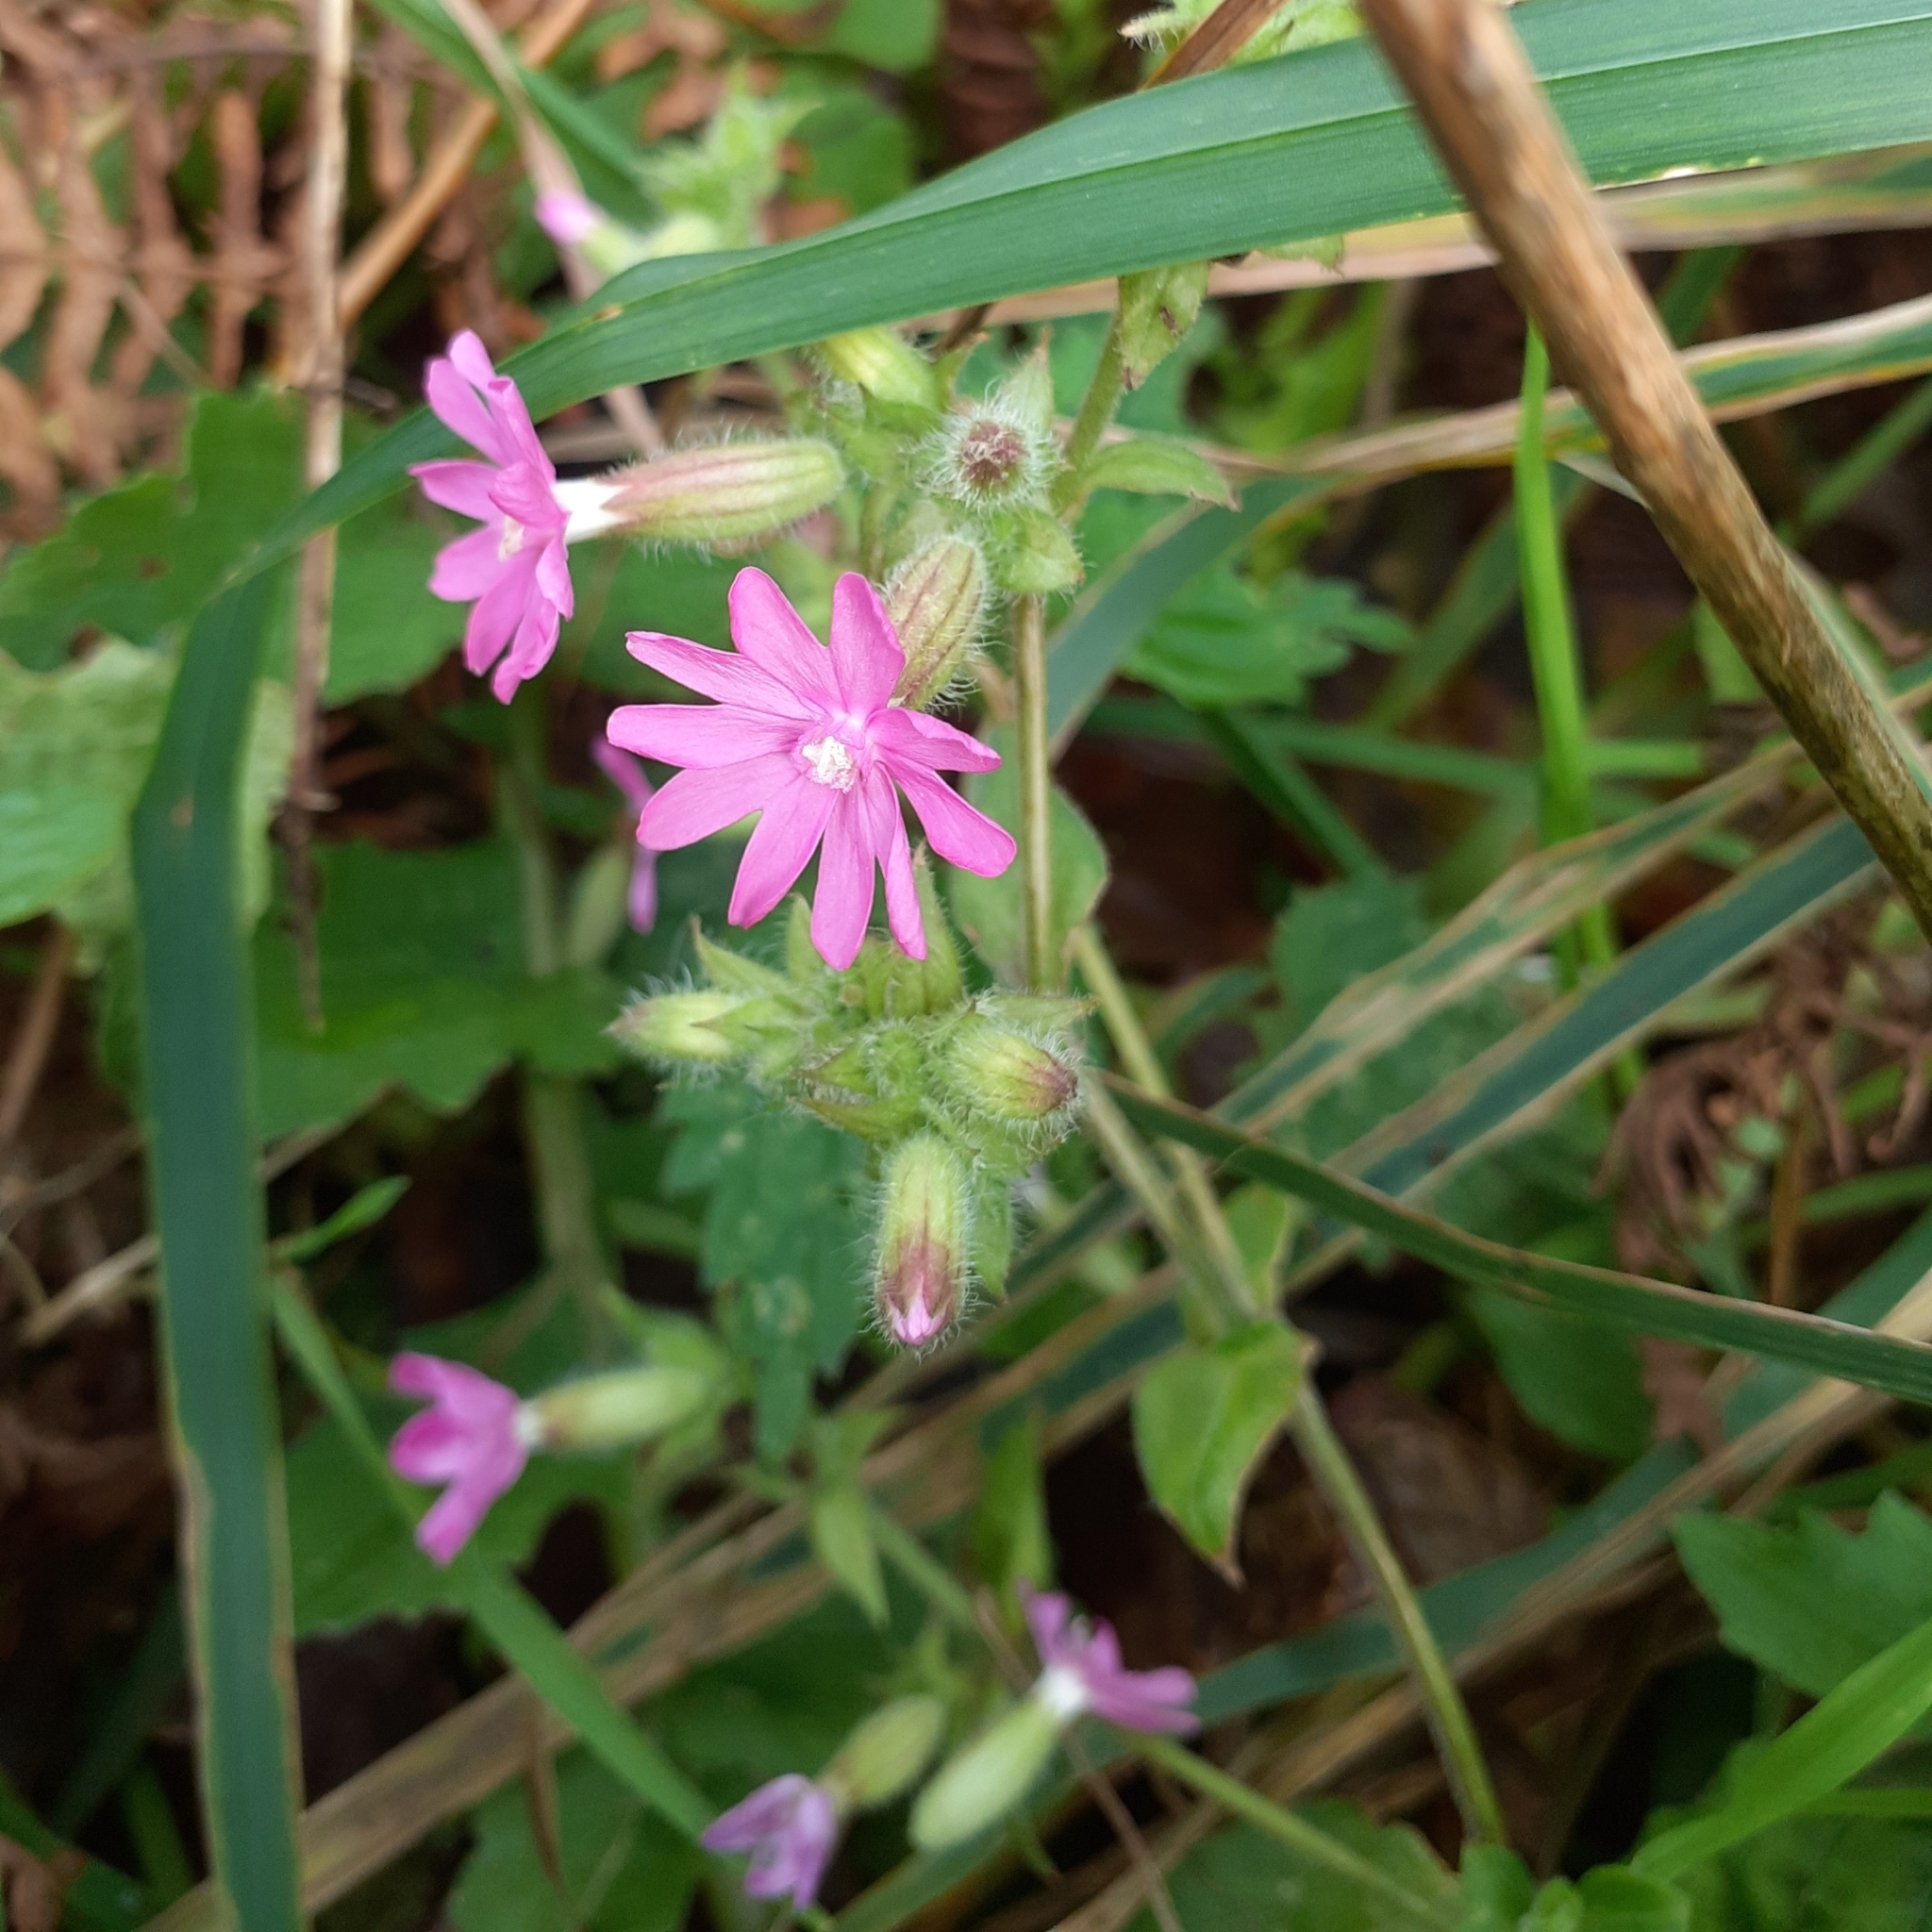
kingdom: Plantae
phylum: Tracheophyta
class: Magnoliopsida
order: Caryophyllales
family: Caryophyllaceae
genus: Silene
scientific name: Silene dioica
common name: Red campion
